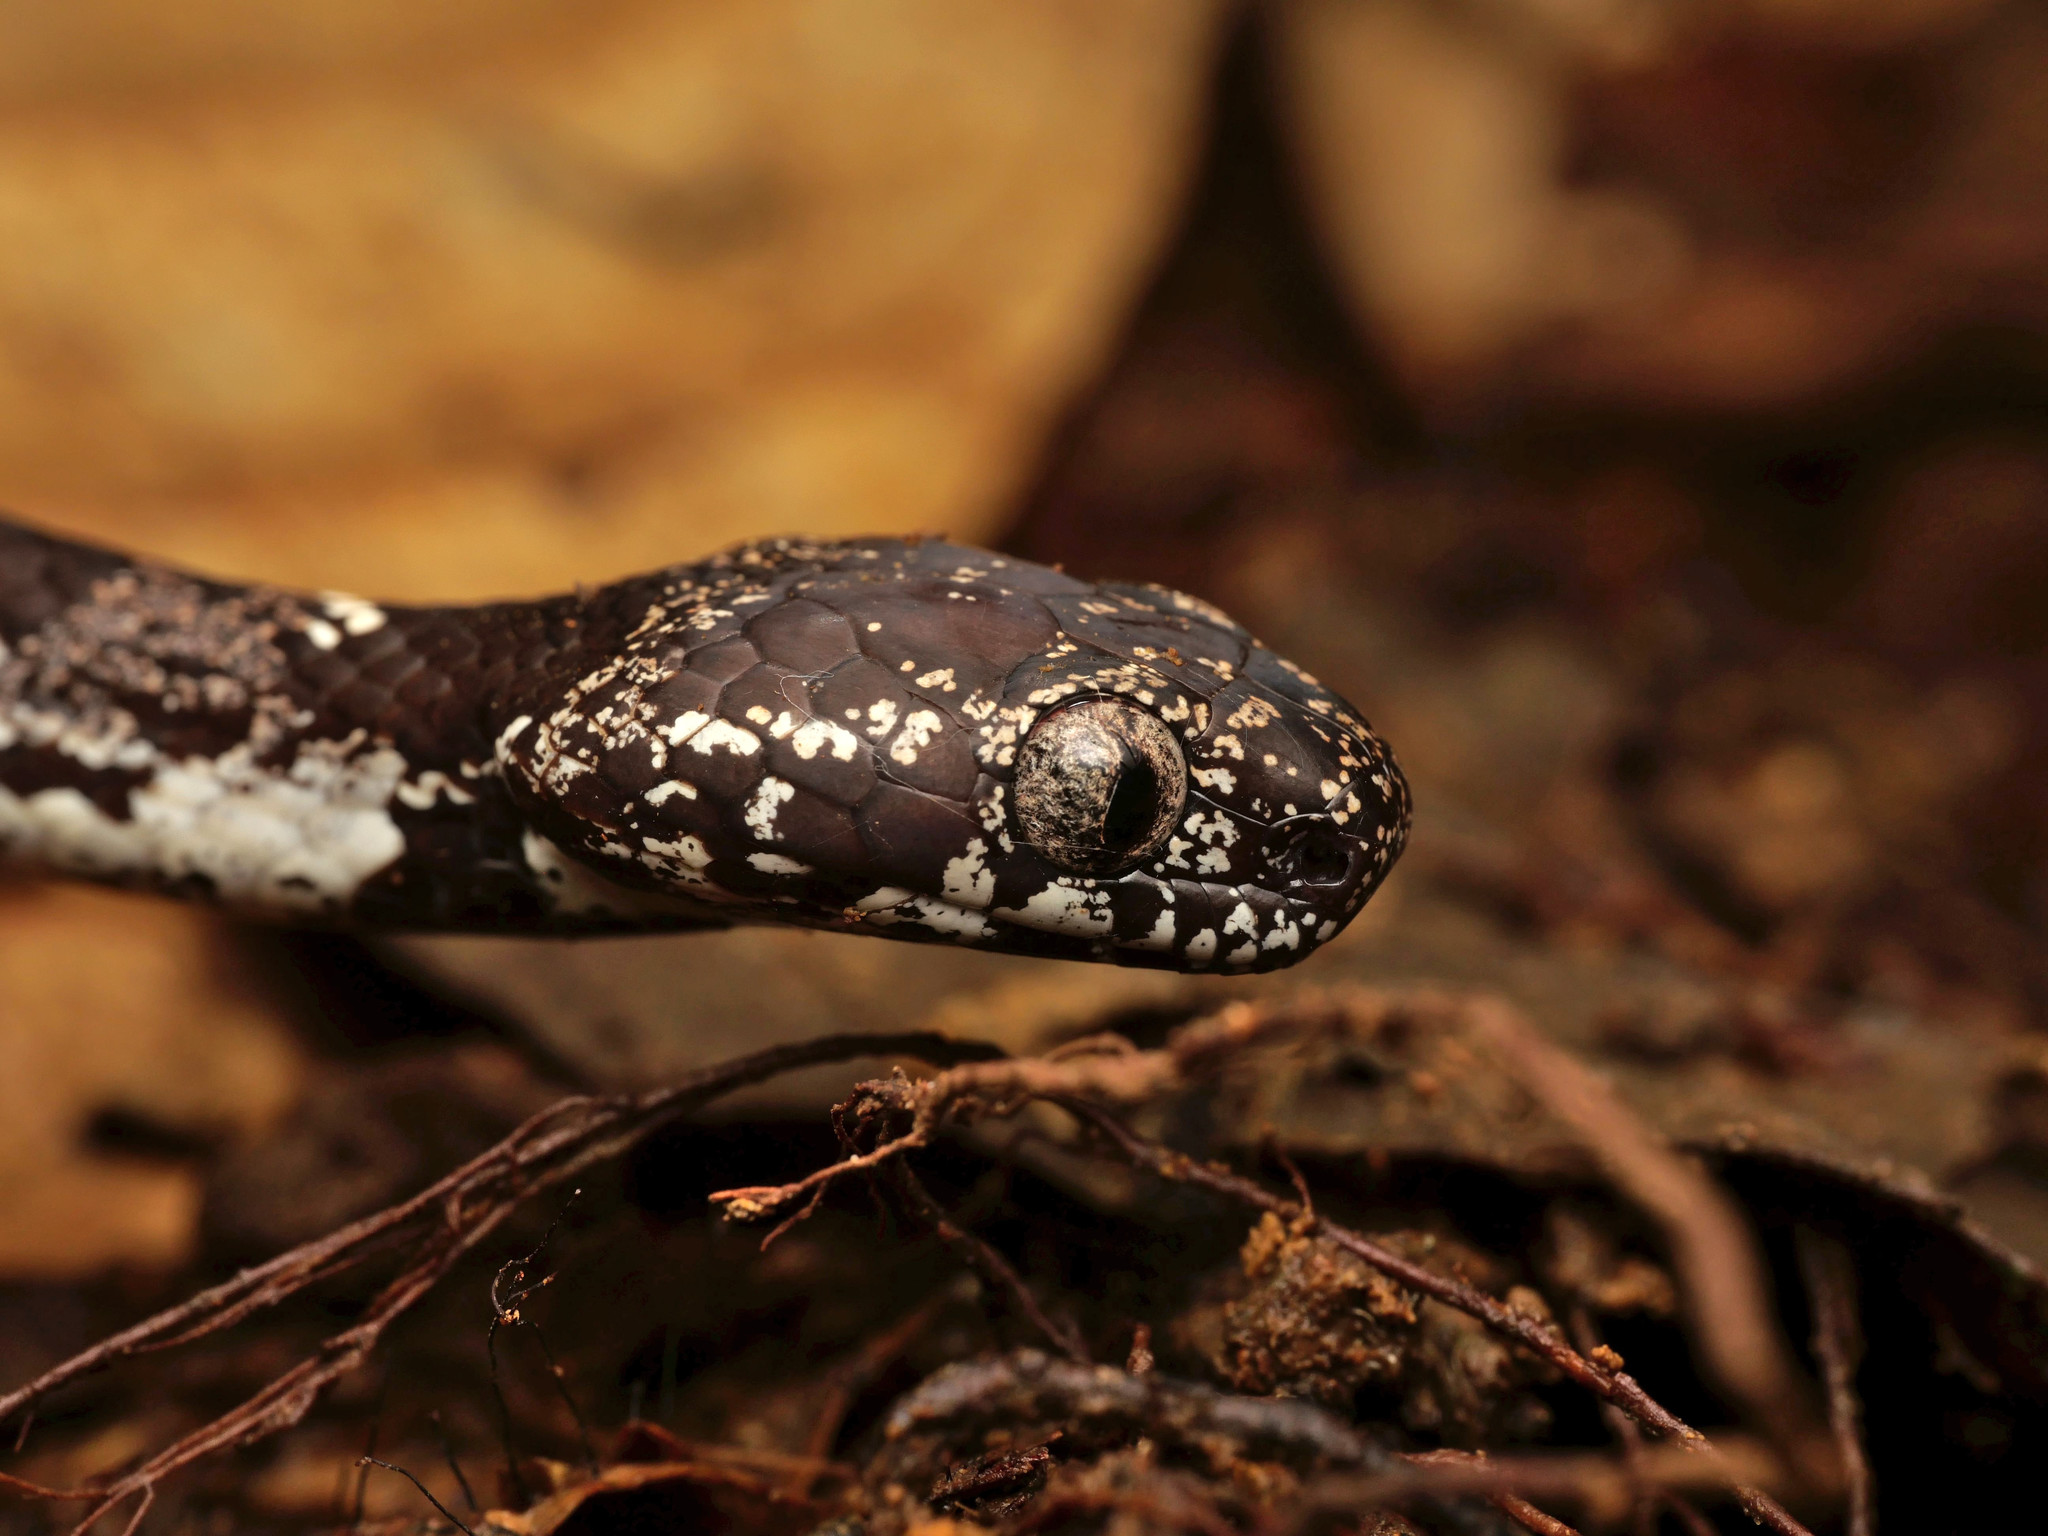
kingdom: Animalia
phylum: Chordata
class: Squamata
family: Colubridae
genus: Sibon
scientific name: Sibon nebulatus
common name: Cloudy snail-eating snake
